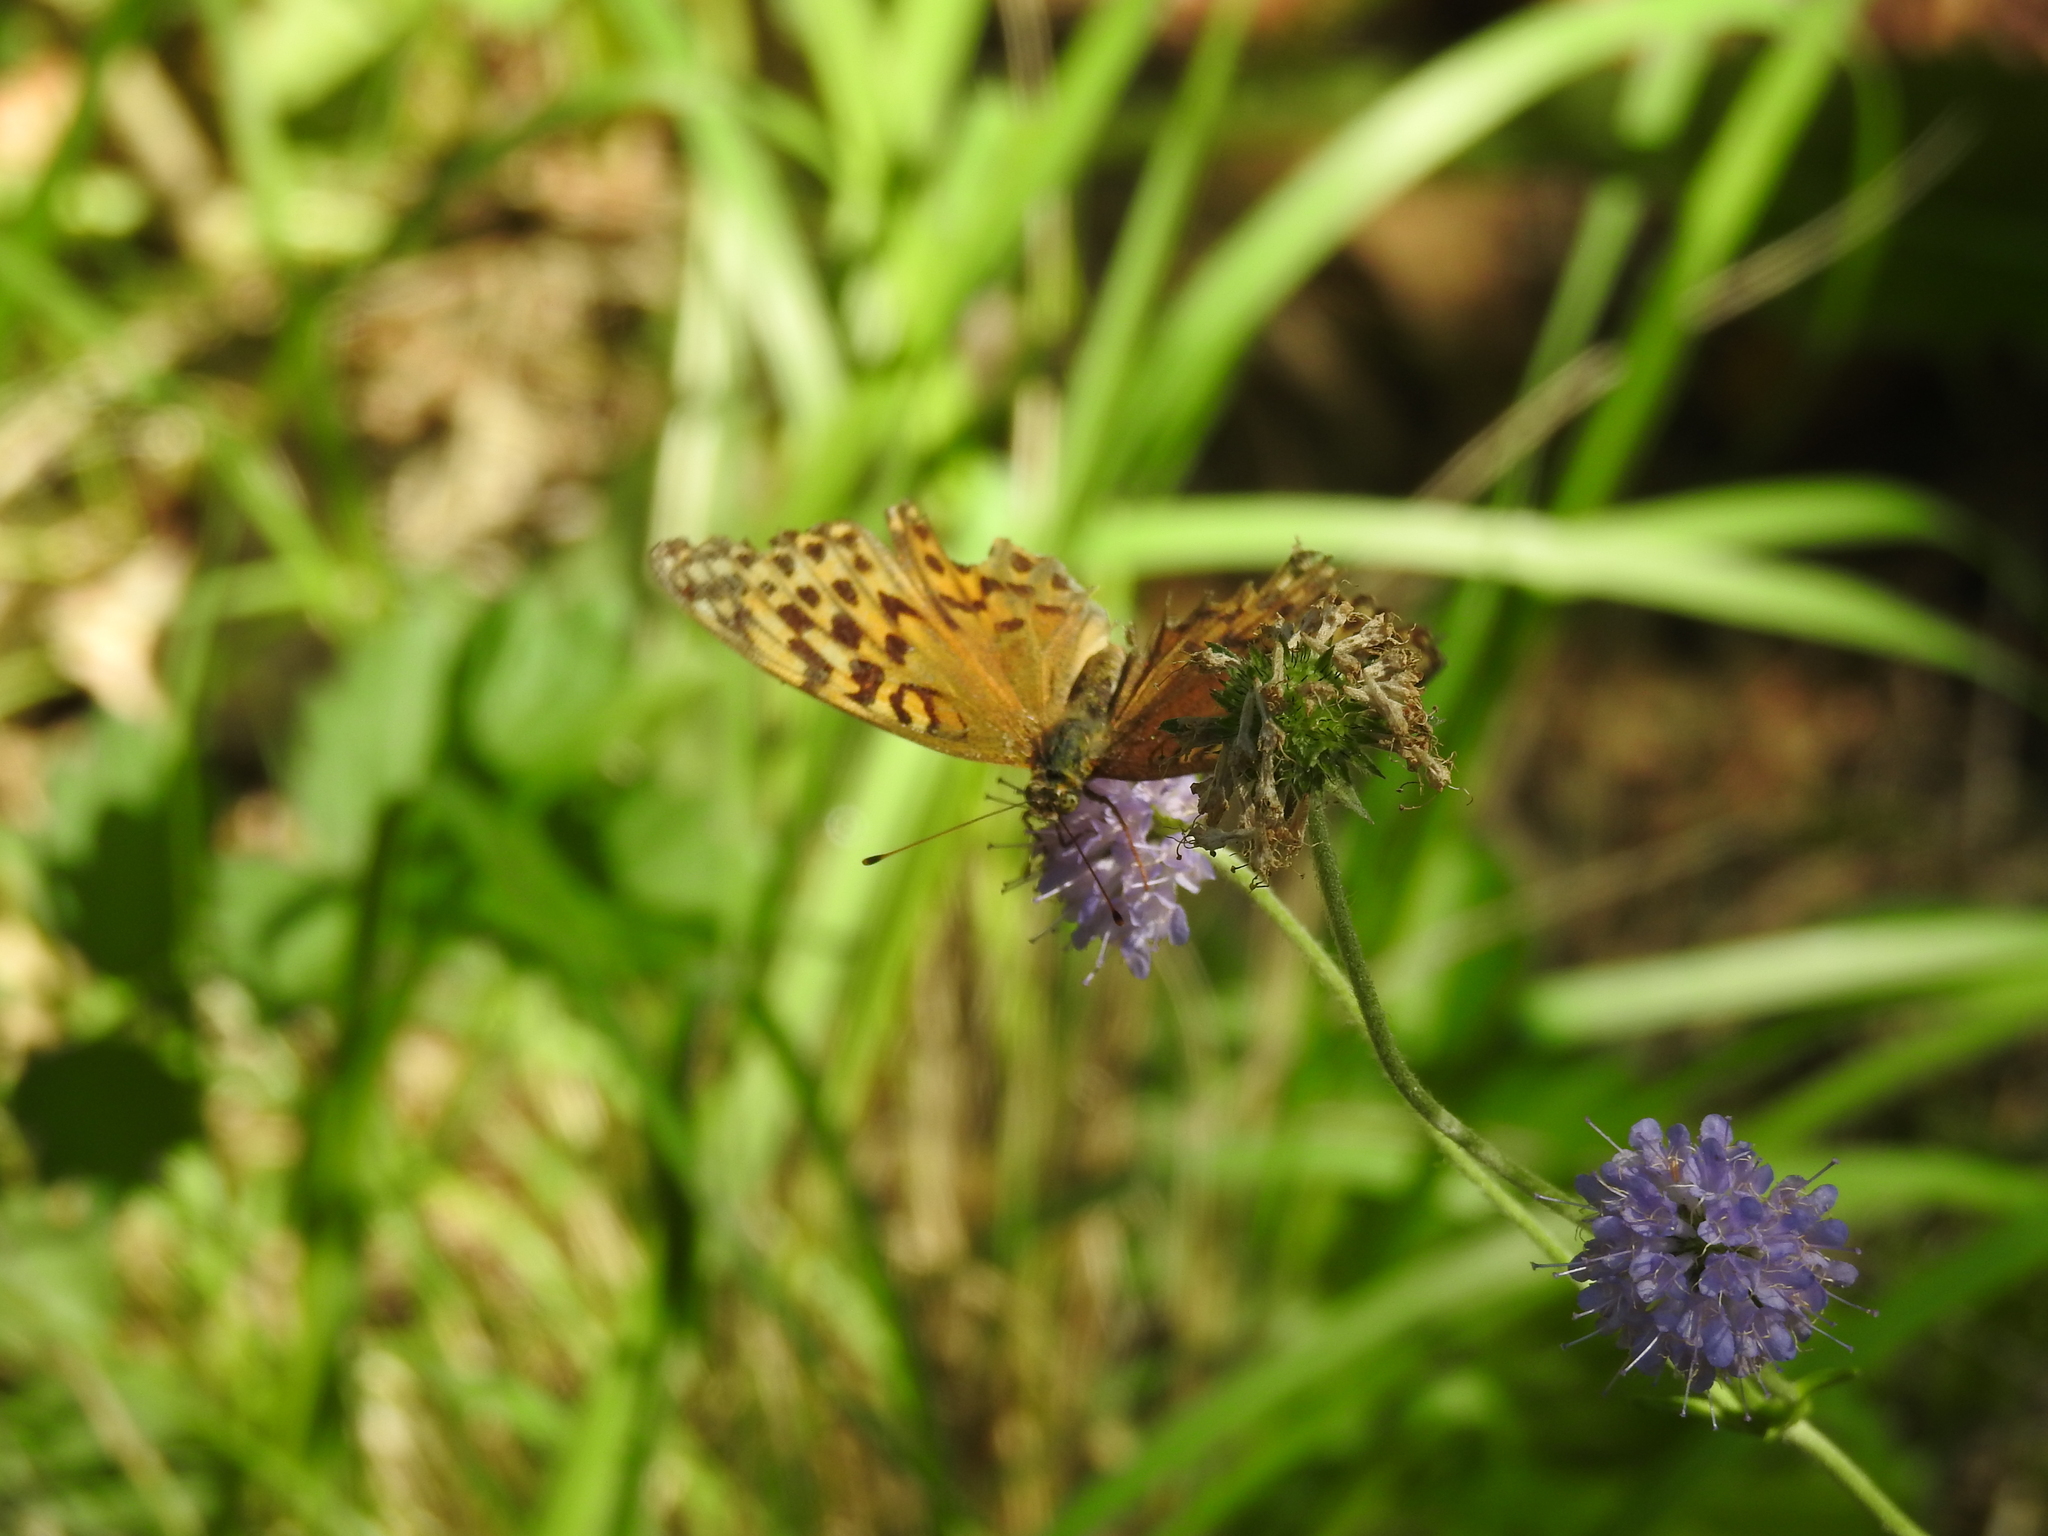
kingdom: Animalia
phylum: Arthropoda
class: Insecta
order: Lepidoptera
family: Nymphalidae
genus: Argynnis
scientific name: Argynnis paphia
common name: Silver-washed fritillary
